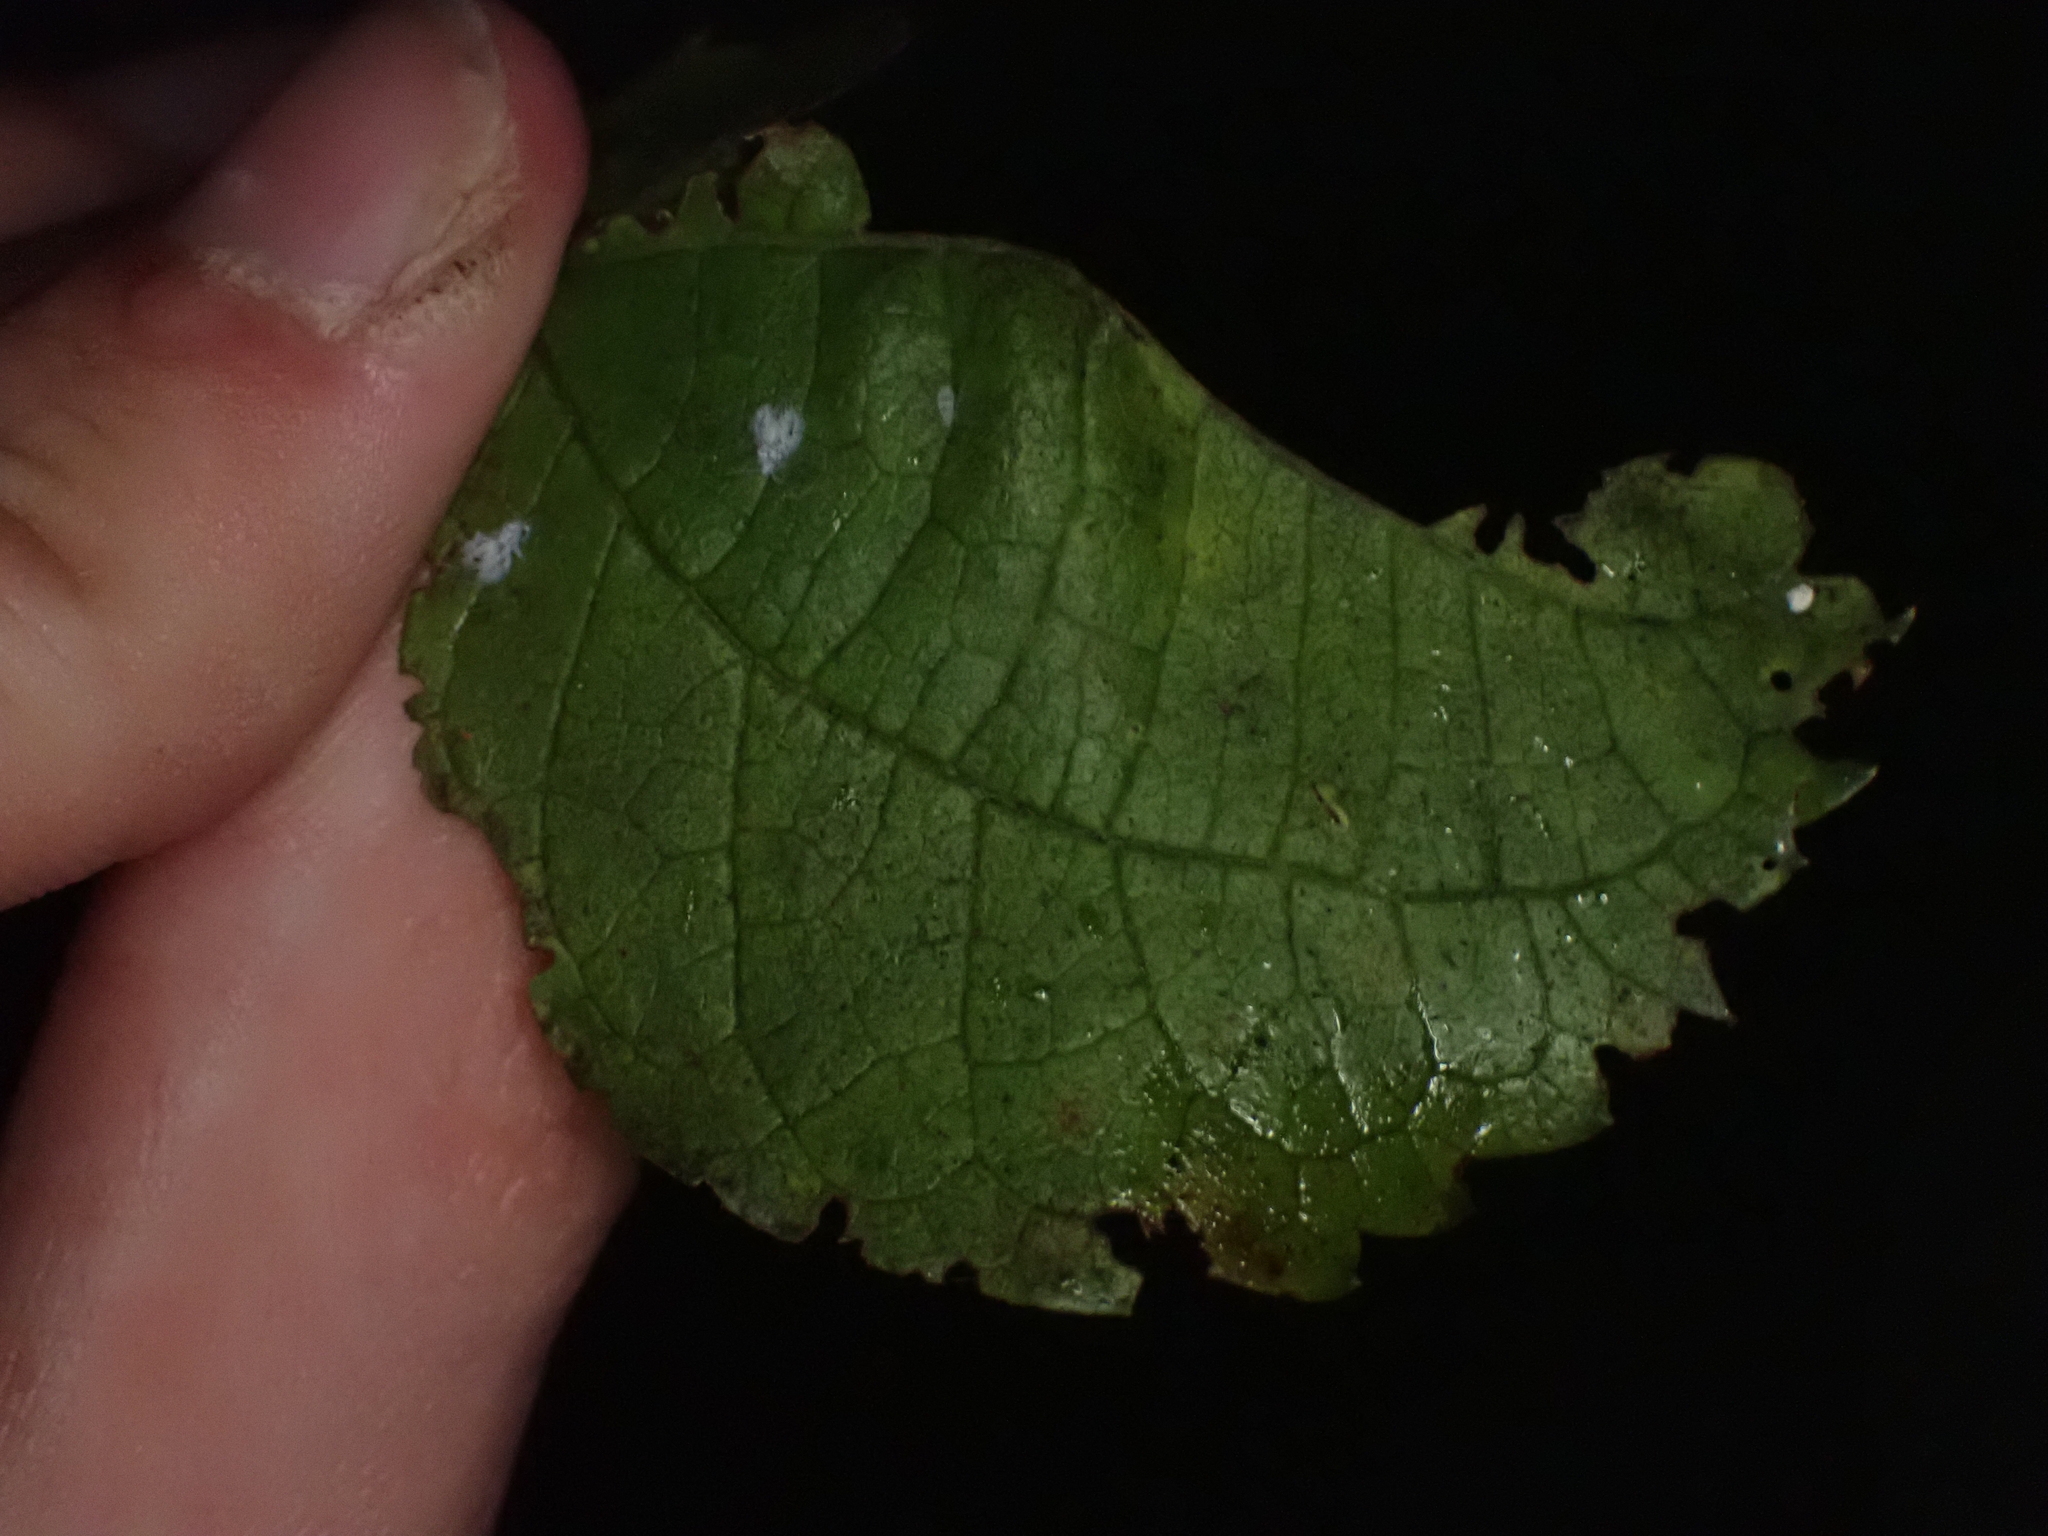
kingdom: Animalia
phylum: Arthropoda
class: Insecta
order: Hemiptera
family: Aphididae
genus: Shivaphis
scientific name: Shivaphis celti
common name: Asian wooly hackberry aphid
